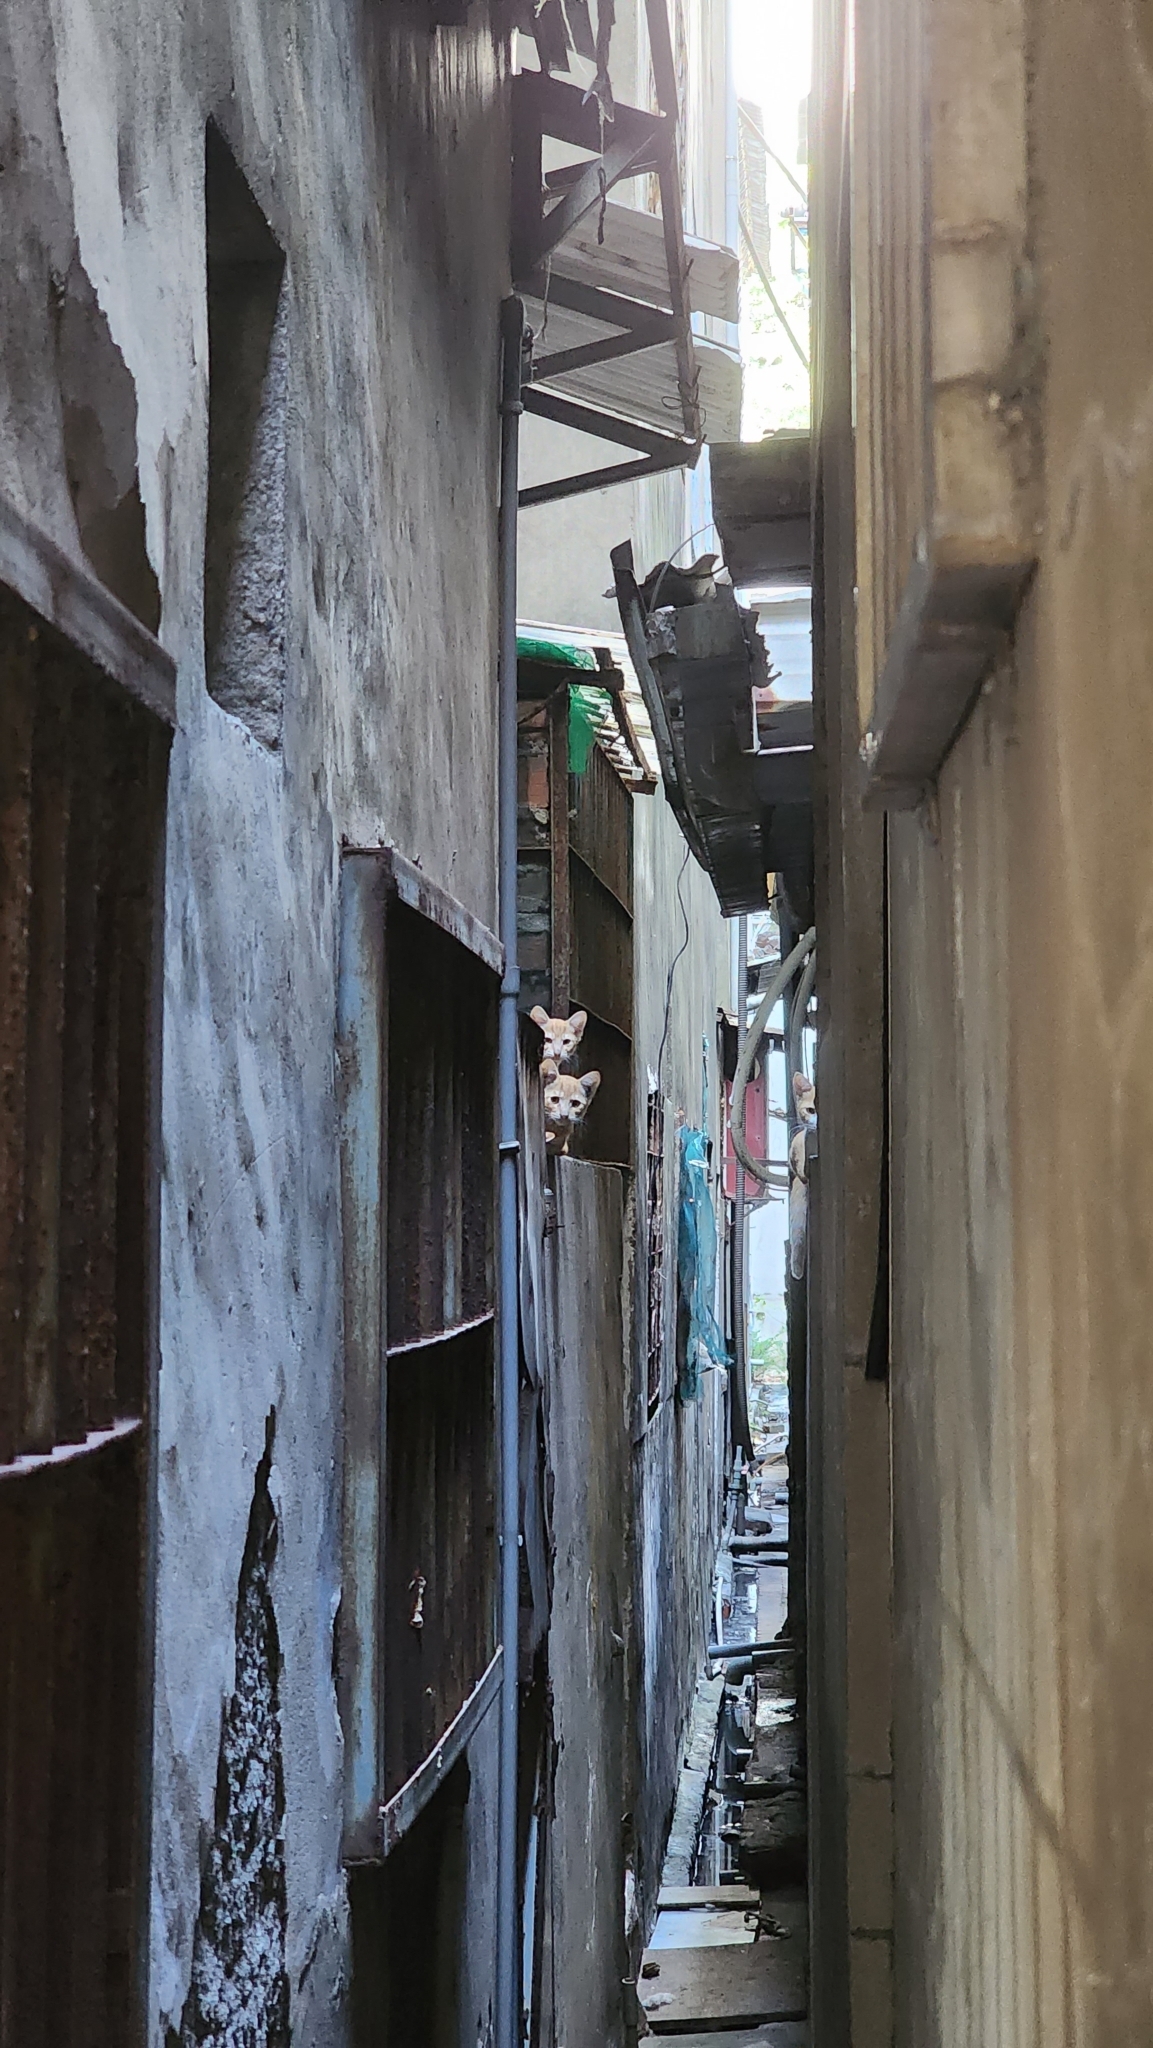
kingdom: Animalia
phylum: Chordata
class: Mammalia
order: Carnivora
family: Felidae
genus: Felis
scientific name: Felis catus
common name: Domestic cat
